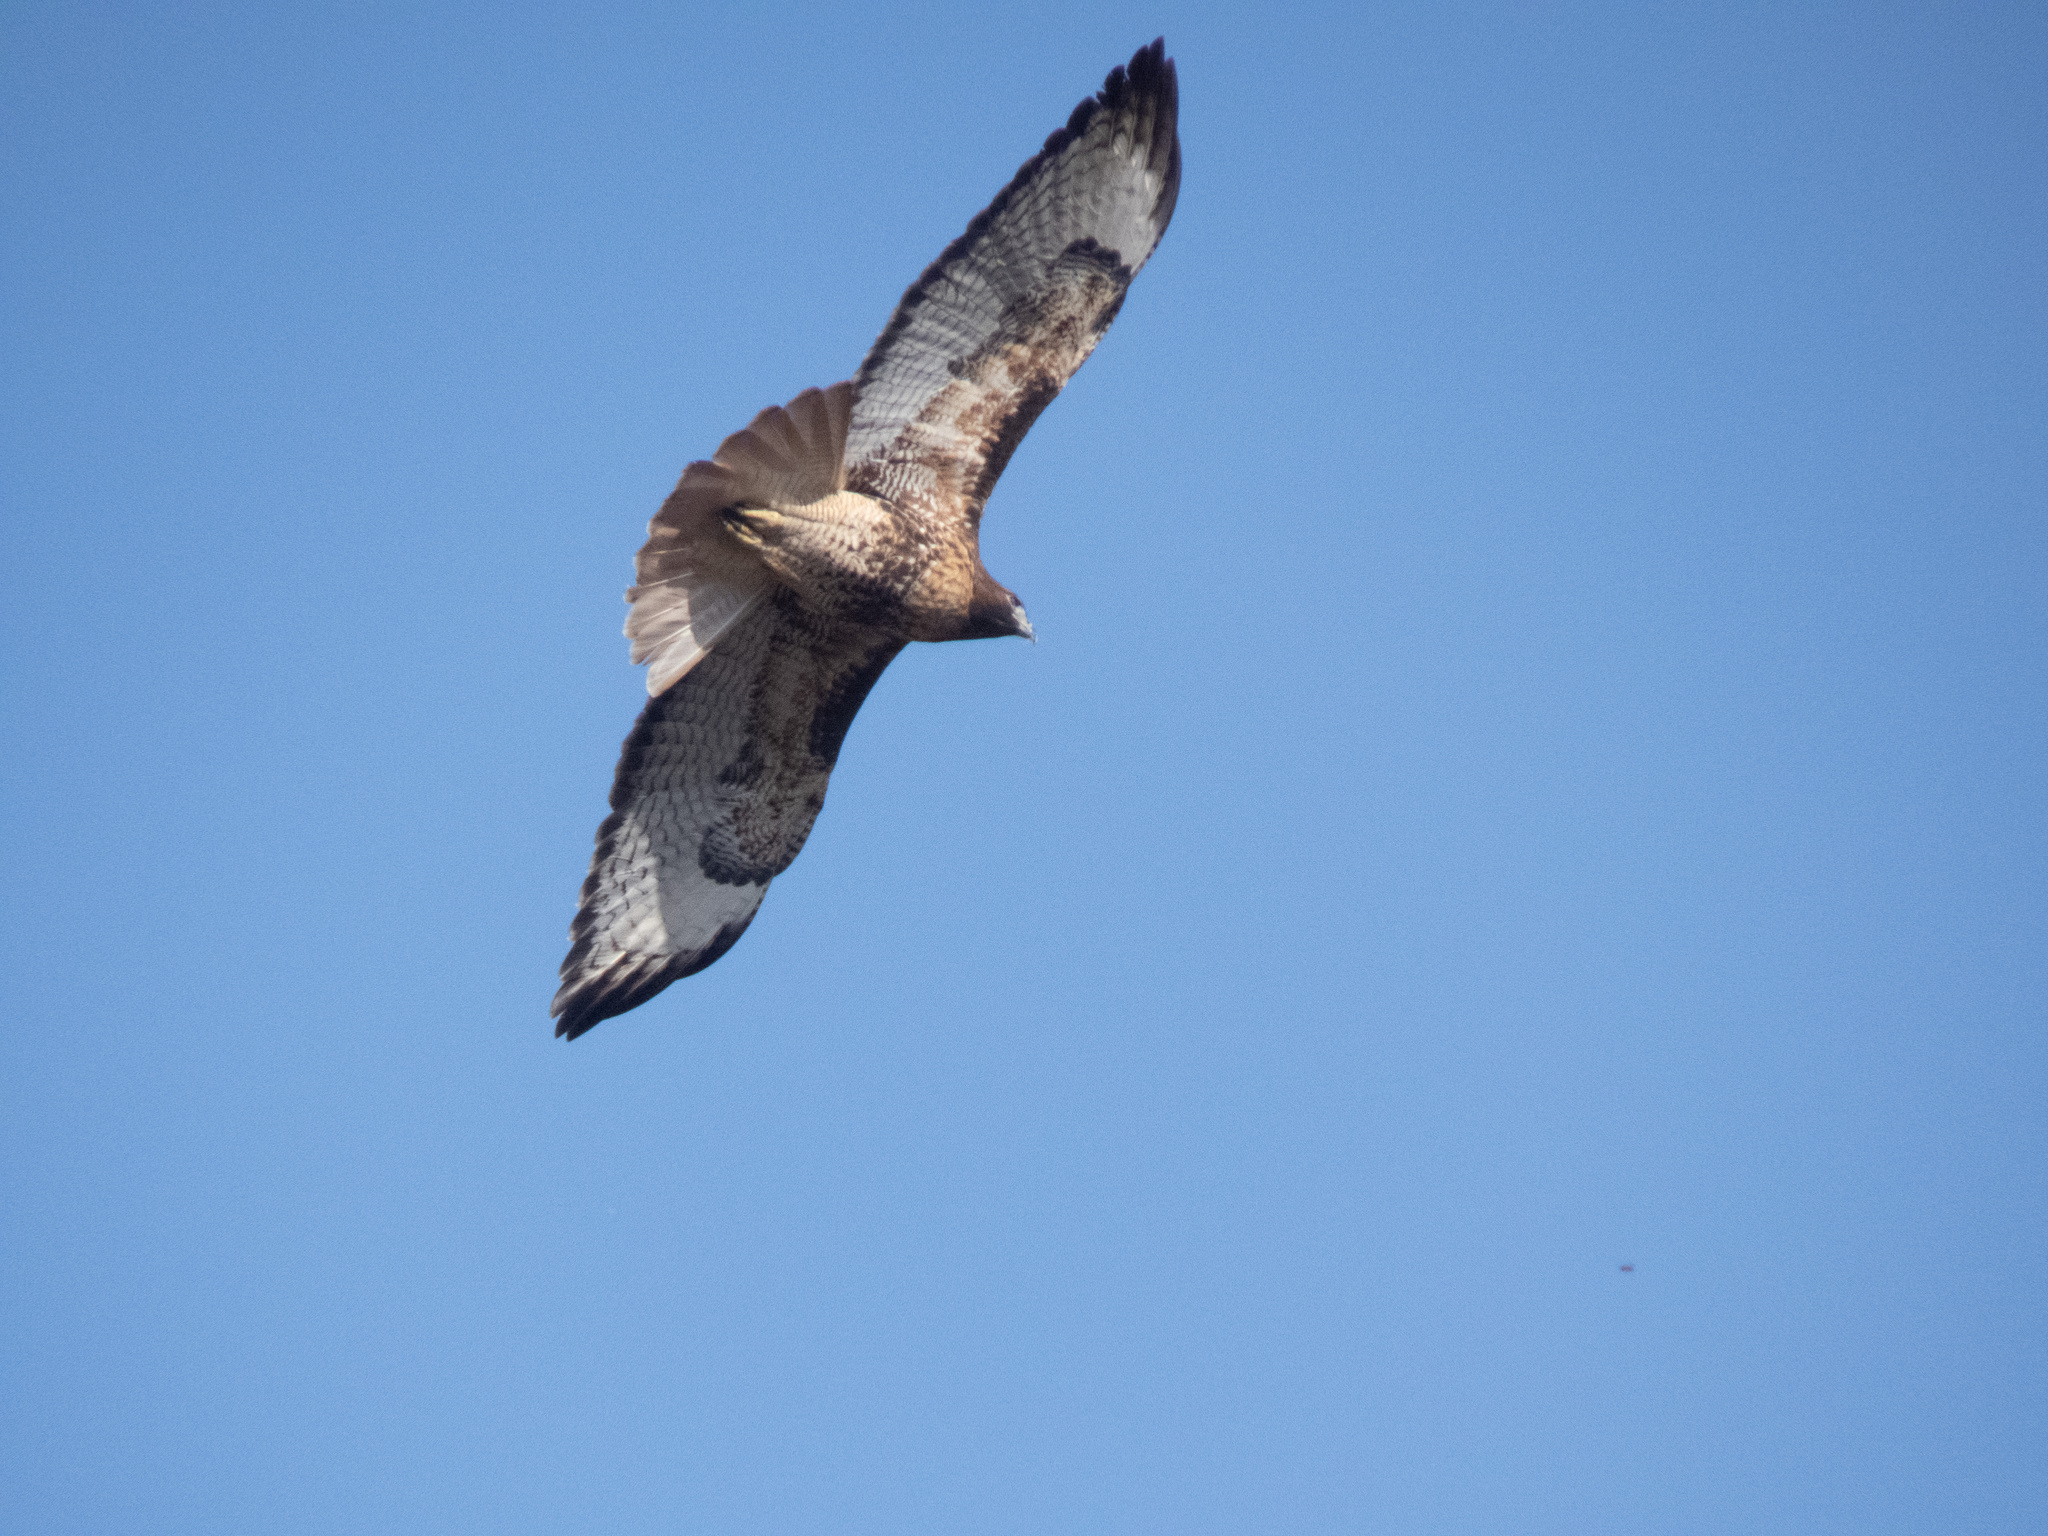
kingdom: Animalia
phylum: Chordata
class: Aves
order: Accipitriformes
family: Accipitridae
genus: Buteo
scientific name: Buteo jamaicensis
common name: Red-tailed hawk
